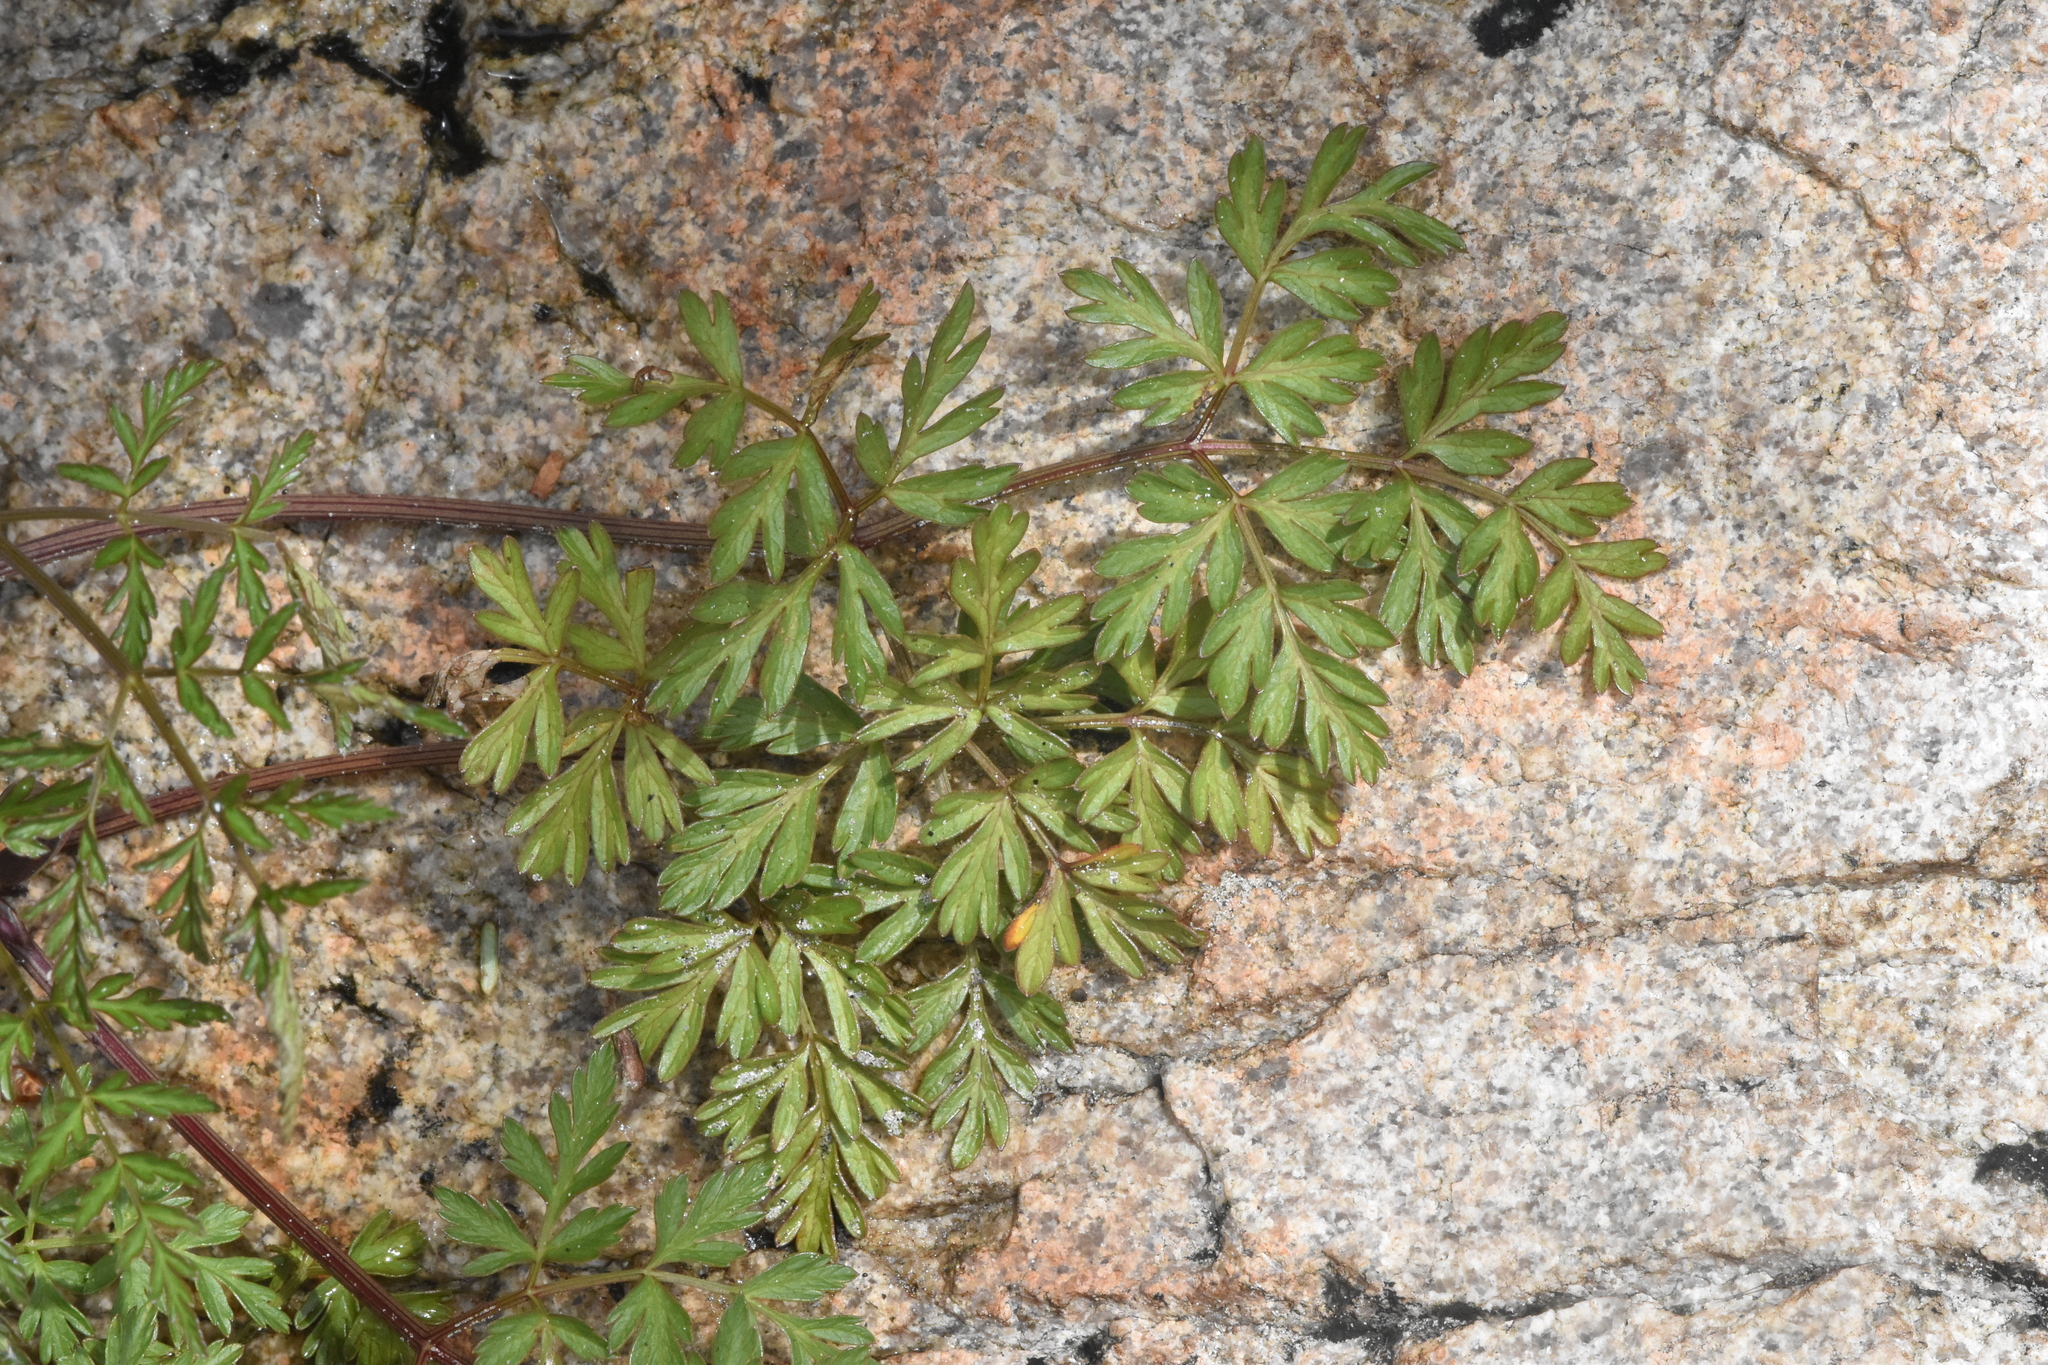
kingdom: Plantae
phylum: Tracheophyta
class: Magnoliopsida
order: Apiales
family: Apiaceae
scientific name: Apiaceae
